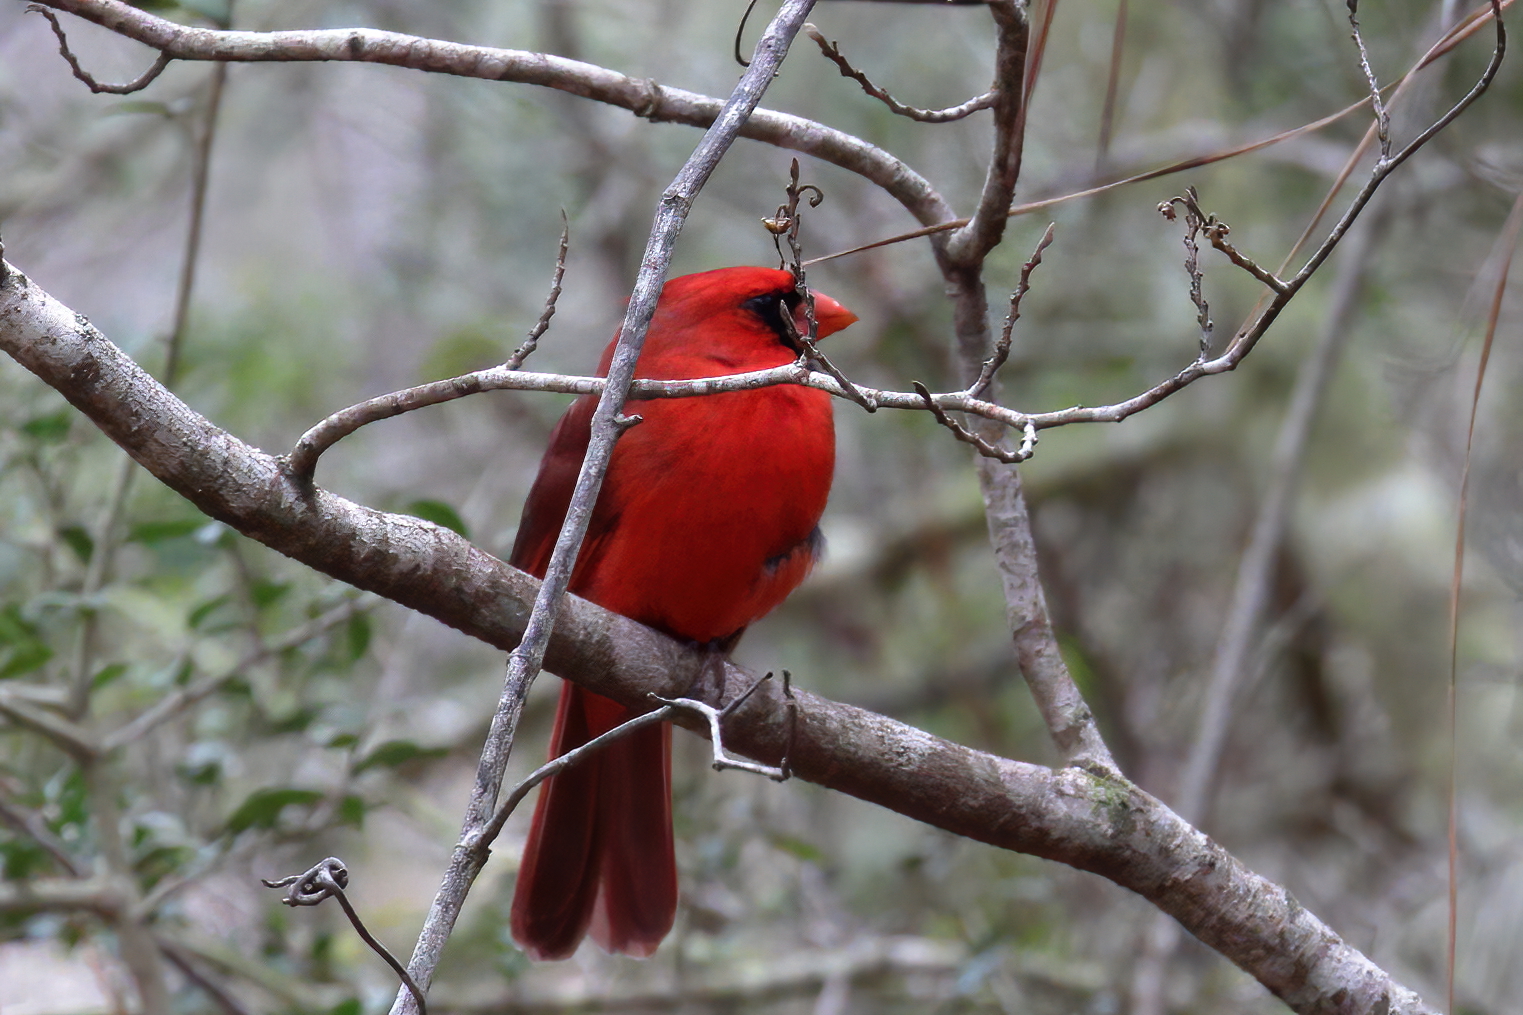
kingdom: Animalia
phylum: Chordata
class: Aves
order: Passeriformes
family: Cardinalidae
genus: Cardinalis
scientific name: Cardinalis cardinalis
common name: Northern cardinal
